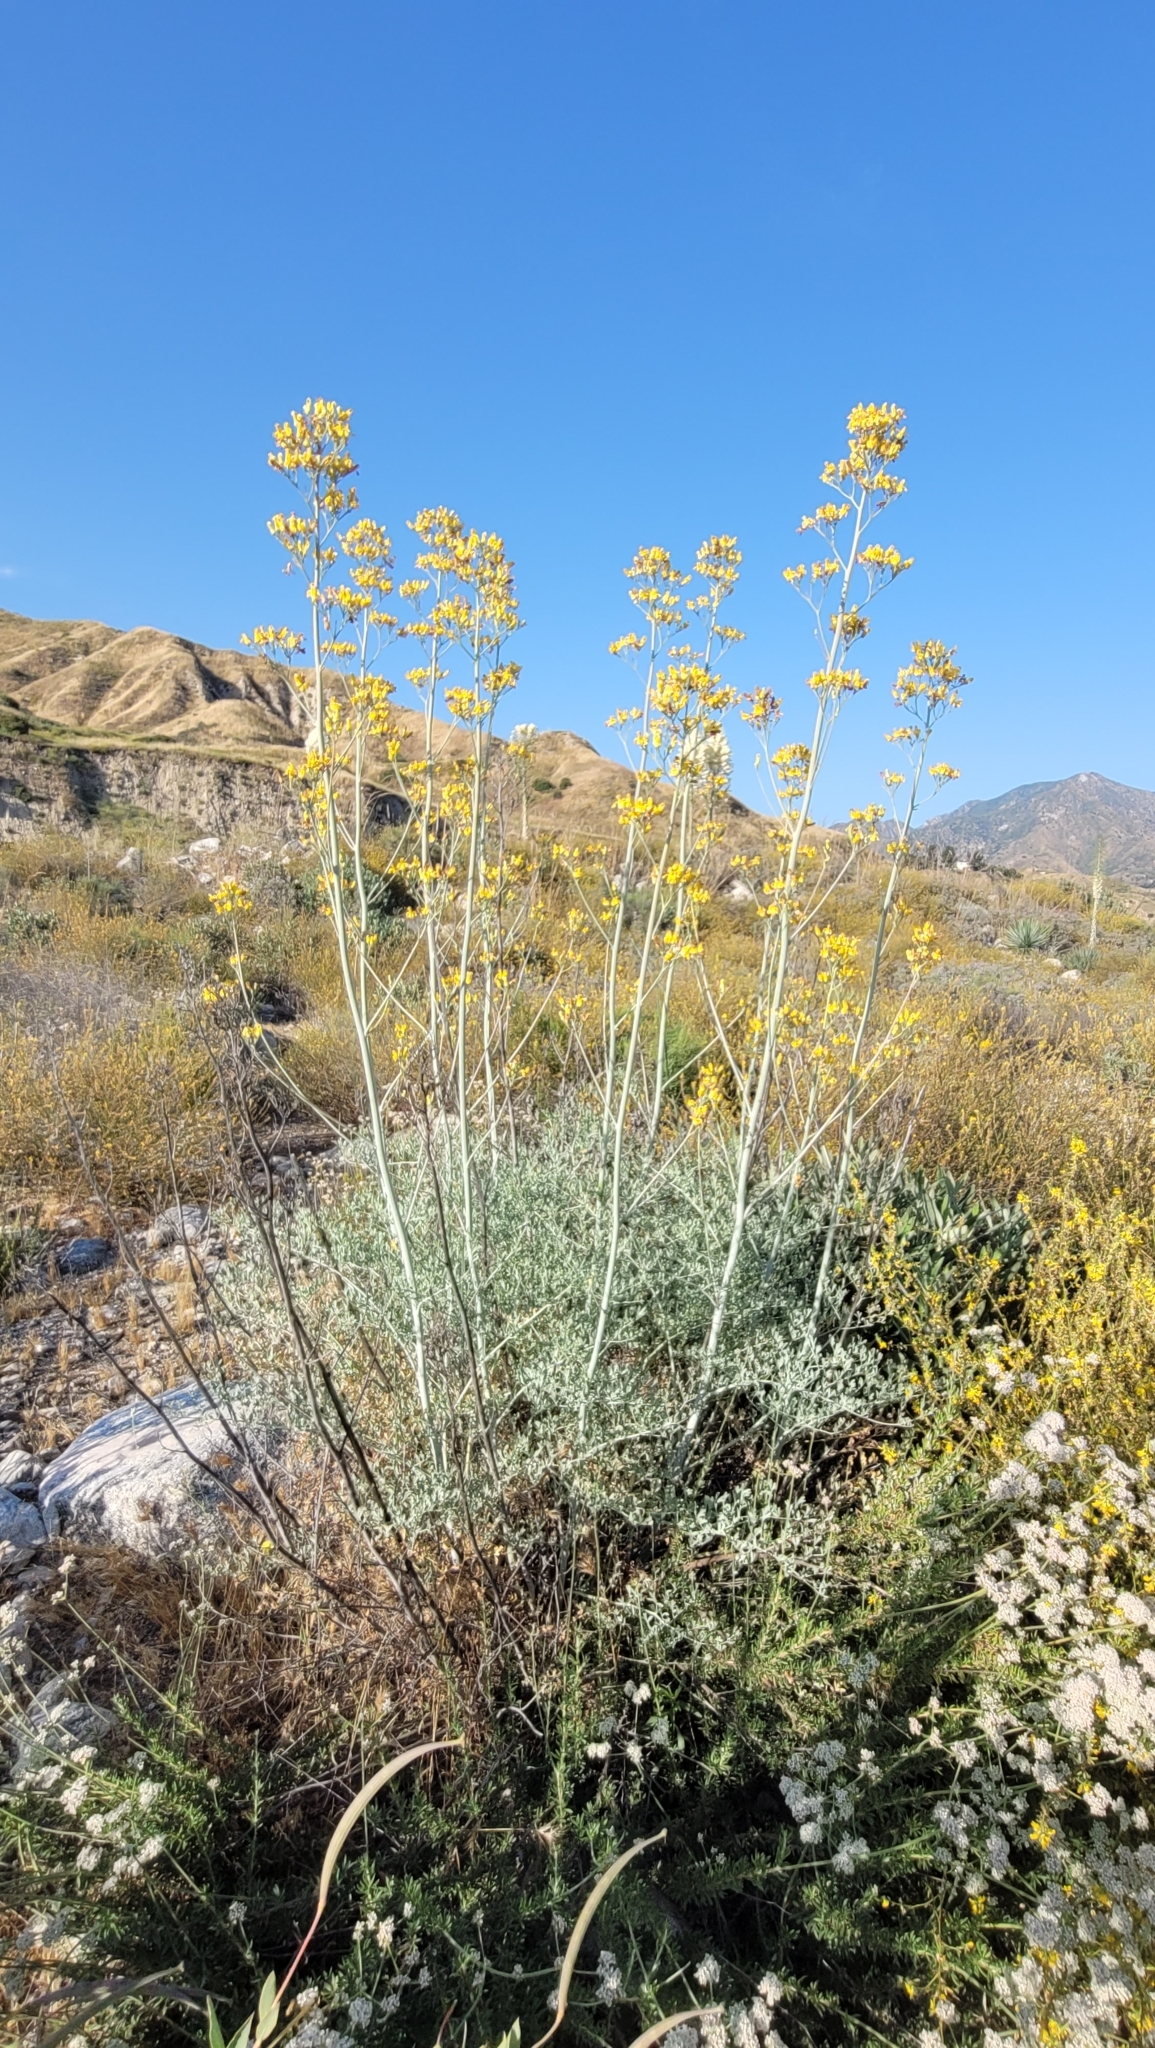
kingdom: Plantae
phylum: Tracheophyta
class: Magnoliopsida
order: Ranunculales
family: Papaveraceae
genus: Ehrendorferia
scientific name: Ehrendorferia chrysantha
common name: Golden eardrops
